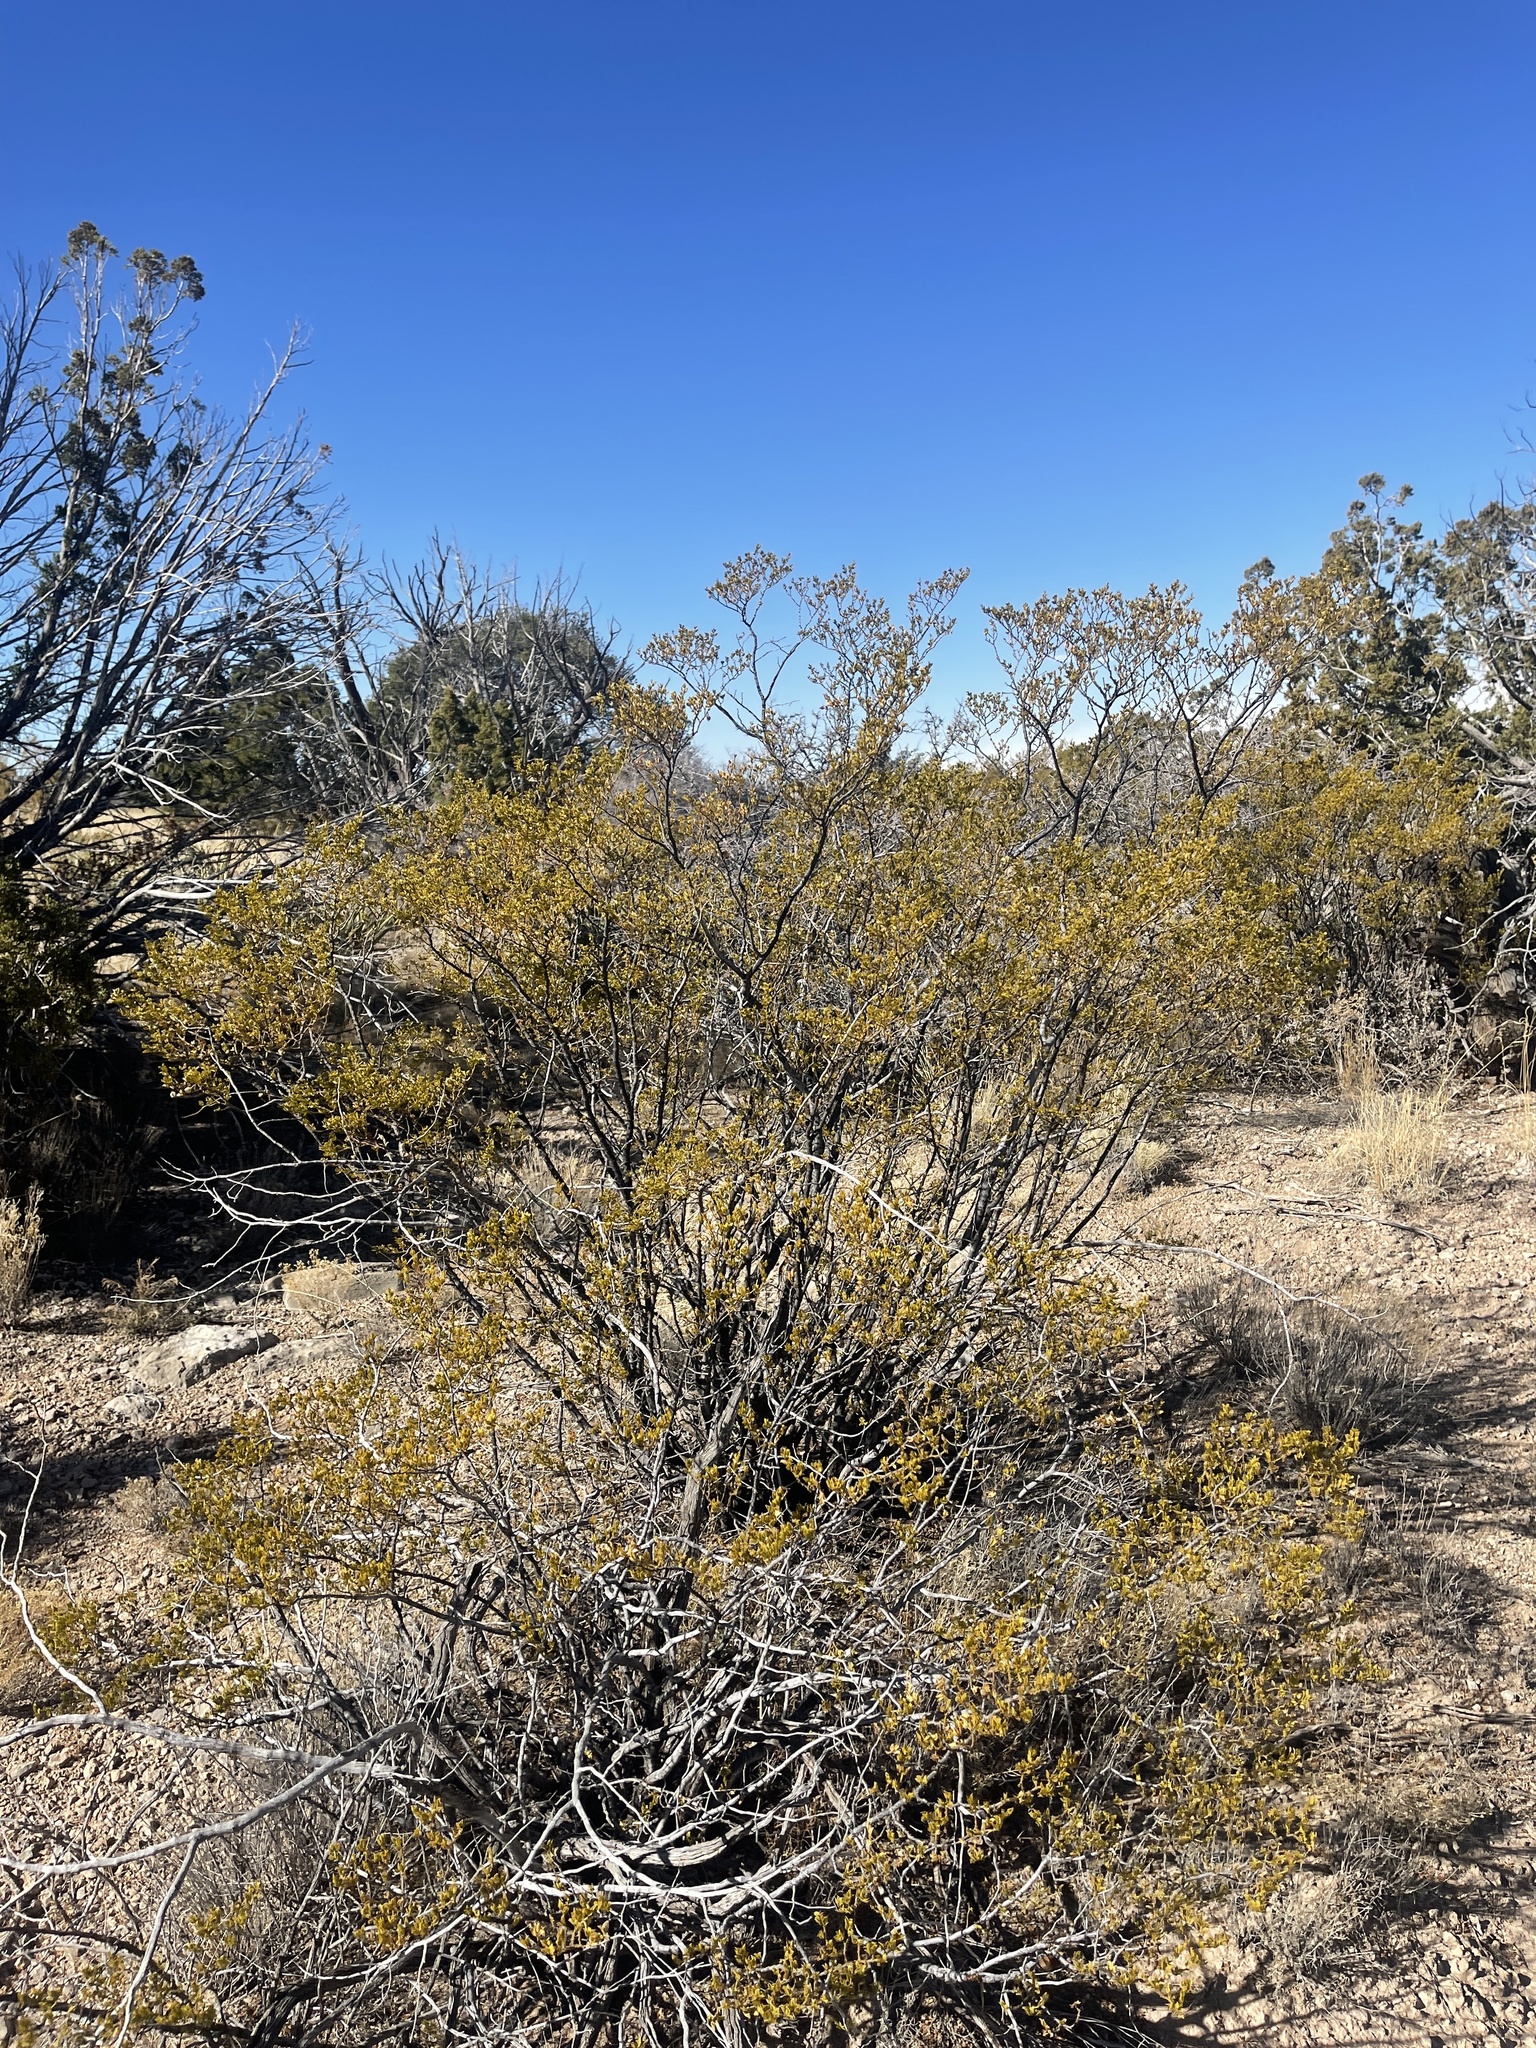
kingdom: Plantae
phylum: Tracheophyta
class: Magnoliopsida
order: Zygophyllales
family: Zygophyllaceae
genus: Larrea
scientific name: Larrea tridentata
